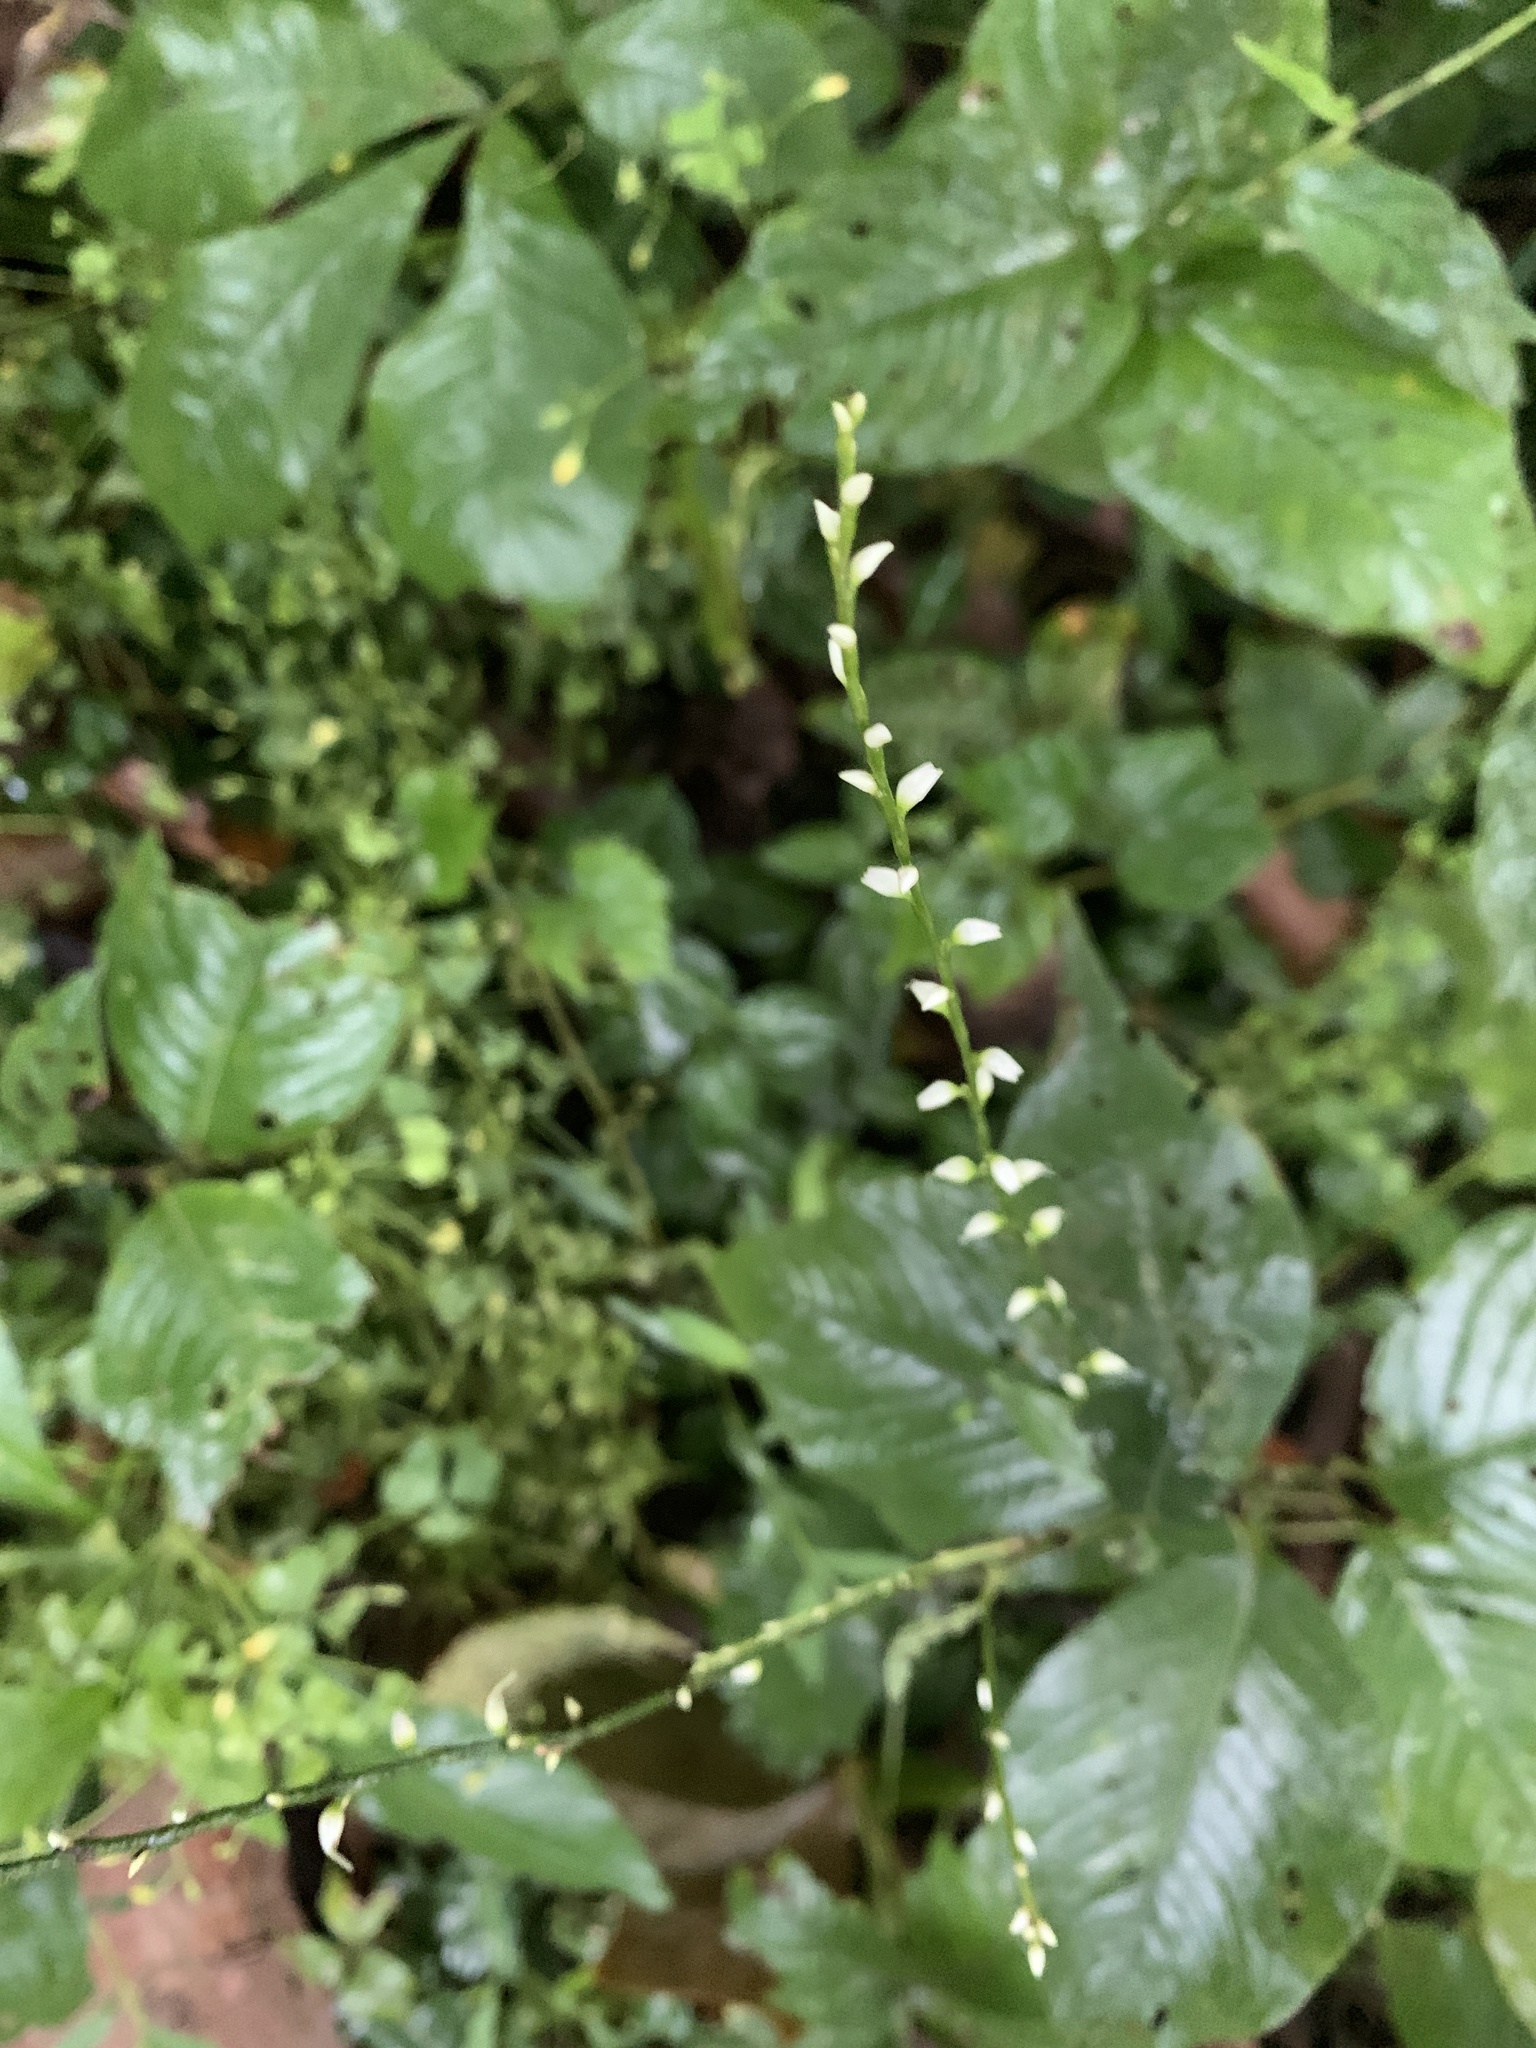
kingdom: Plantae
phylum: Tracheophyta
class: Magnoliopsida
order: Caryophyllales
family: Polygonaceae
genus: Persicaria
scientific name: Persicaria virginiana
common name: Jumpseed
